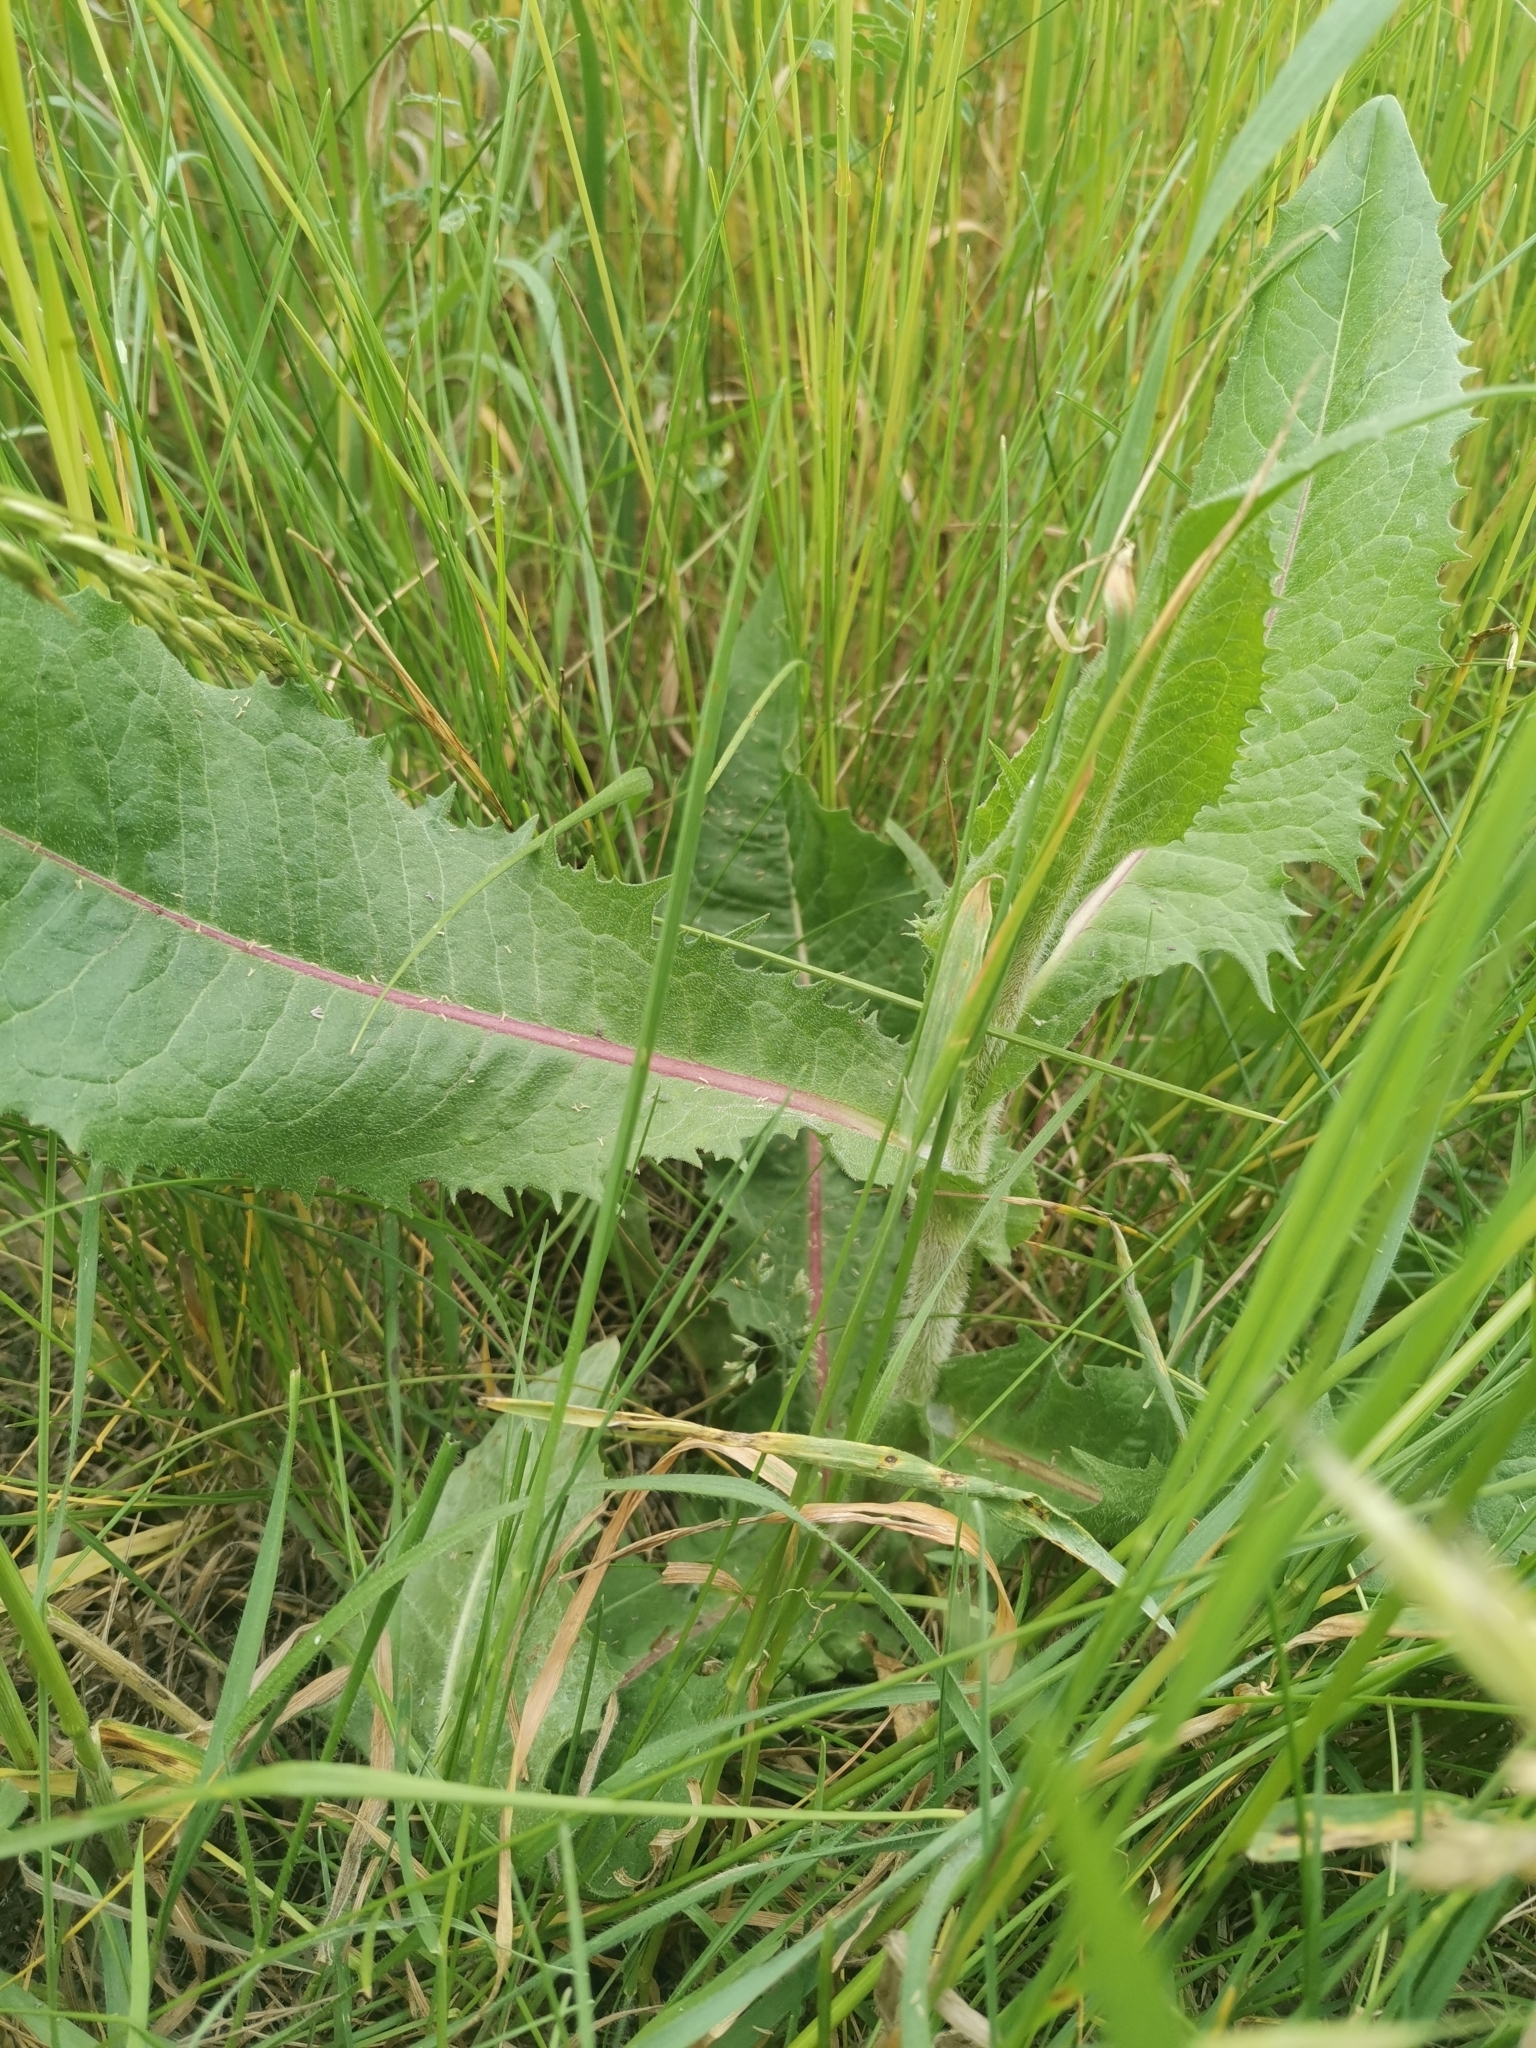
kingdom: Plantae
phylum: Tracheophyta
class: Magnoliopsida
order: Asterales
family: Asteraceae
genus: Cichorium
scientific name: Cichorium intybus
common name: Chicory
